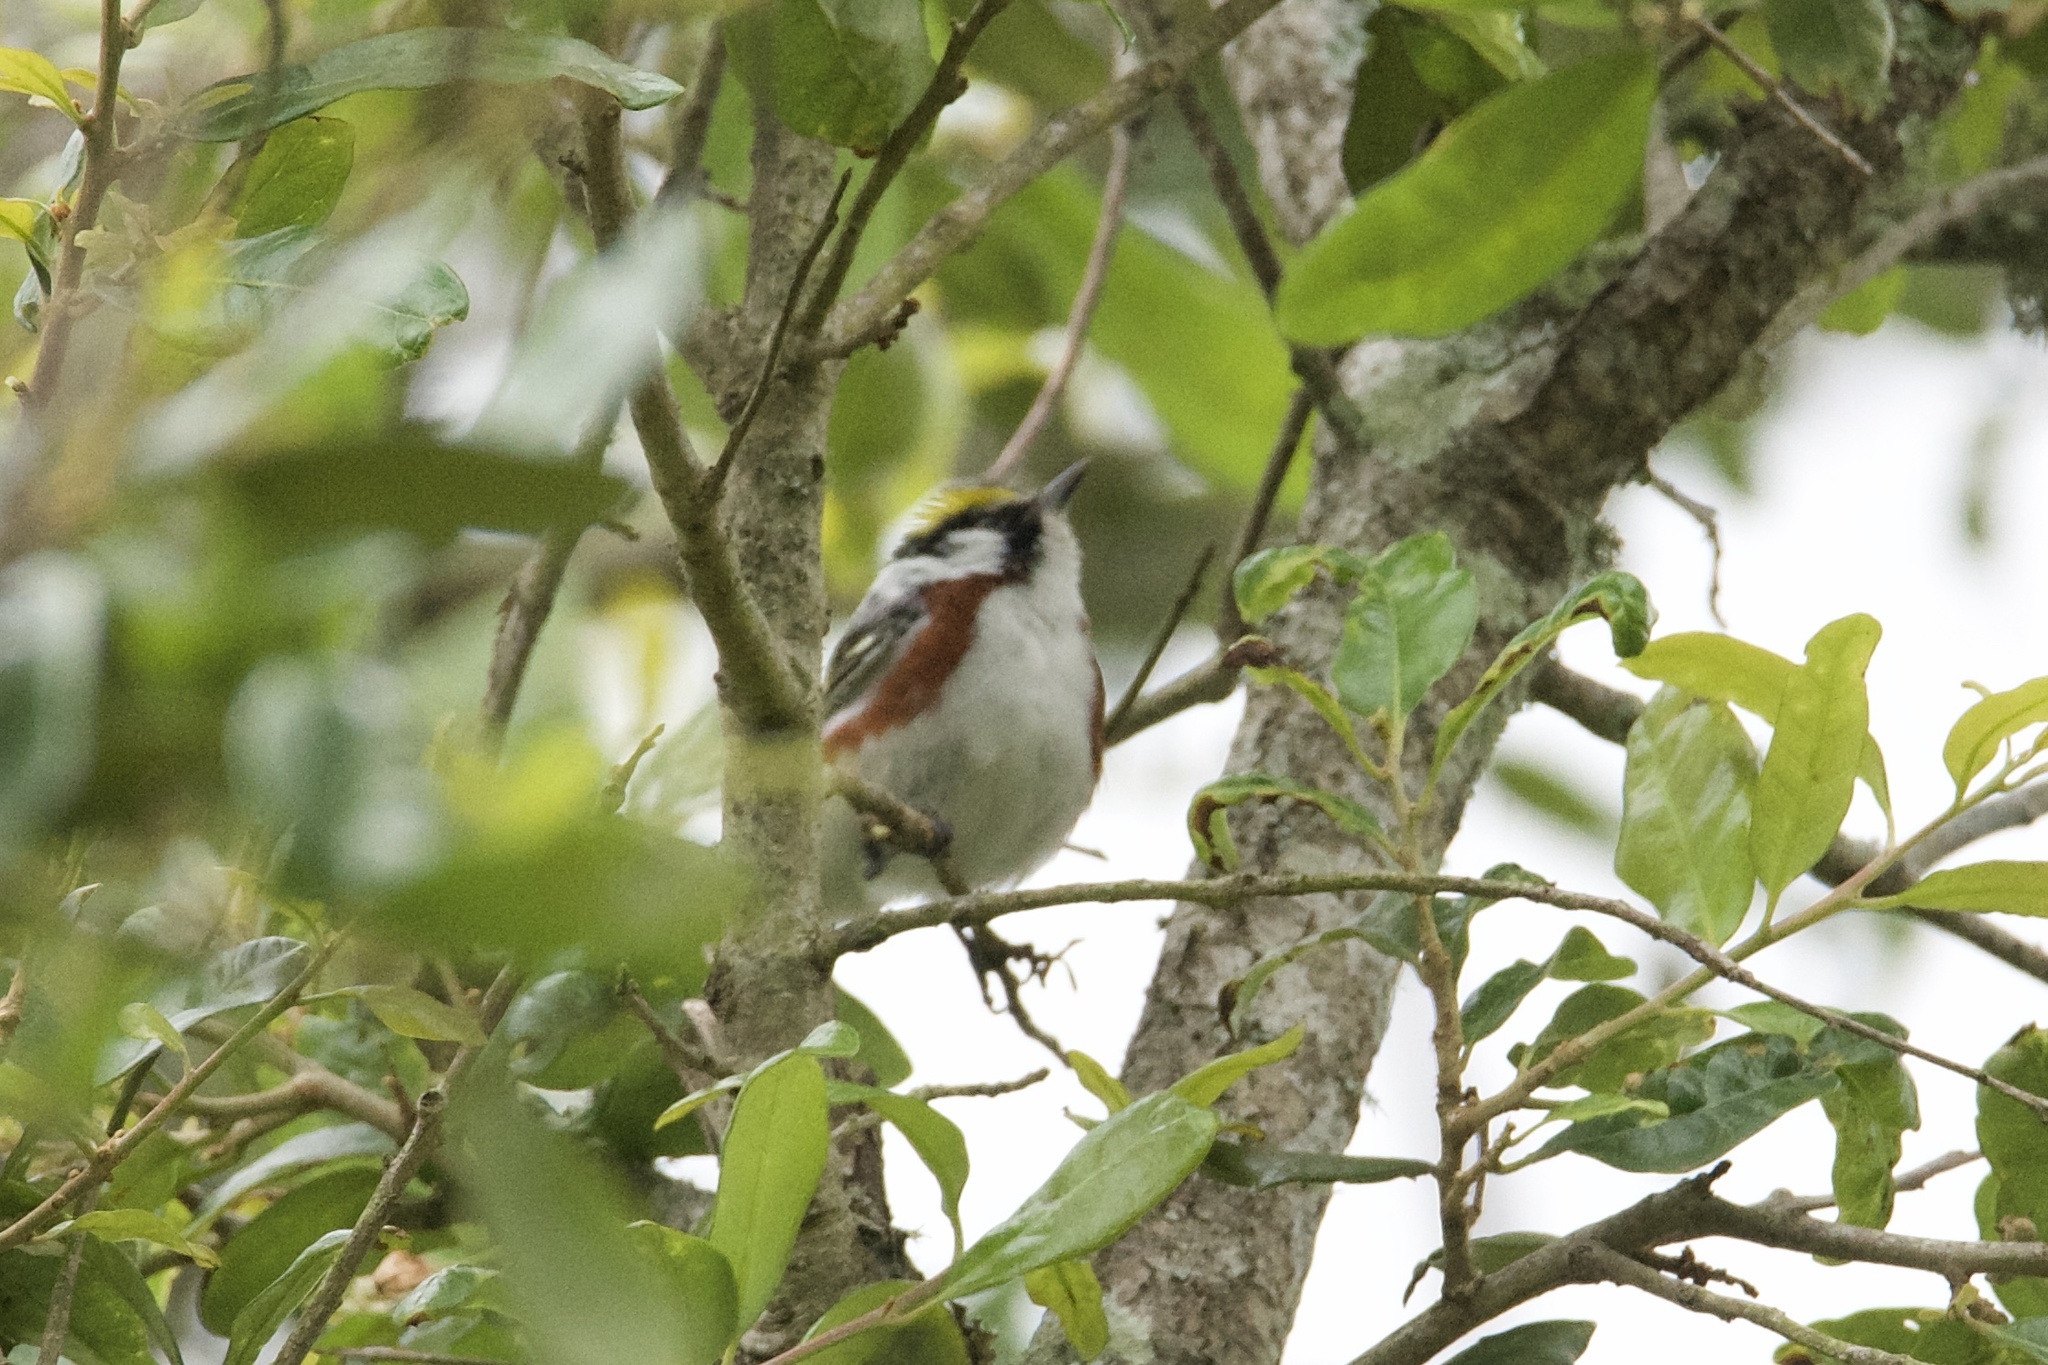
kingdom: Animalia
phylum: Chordata
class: Aves
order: Passeriformes
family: Parulidae
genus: Setophaga
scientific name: Setophaga pensylvanica
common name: Chestnut-sided warbler
